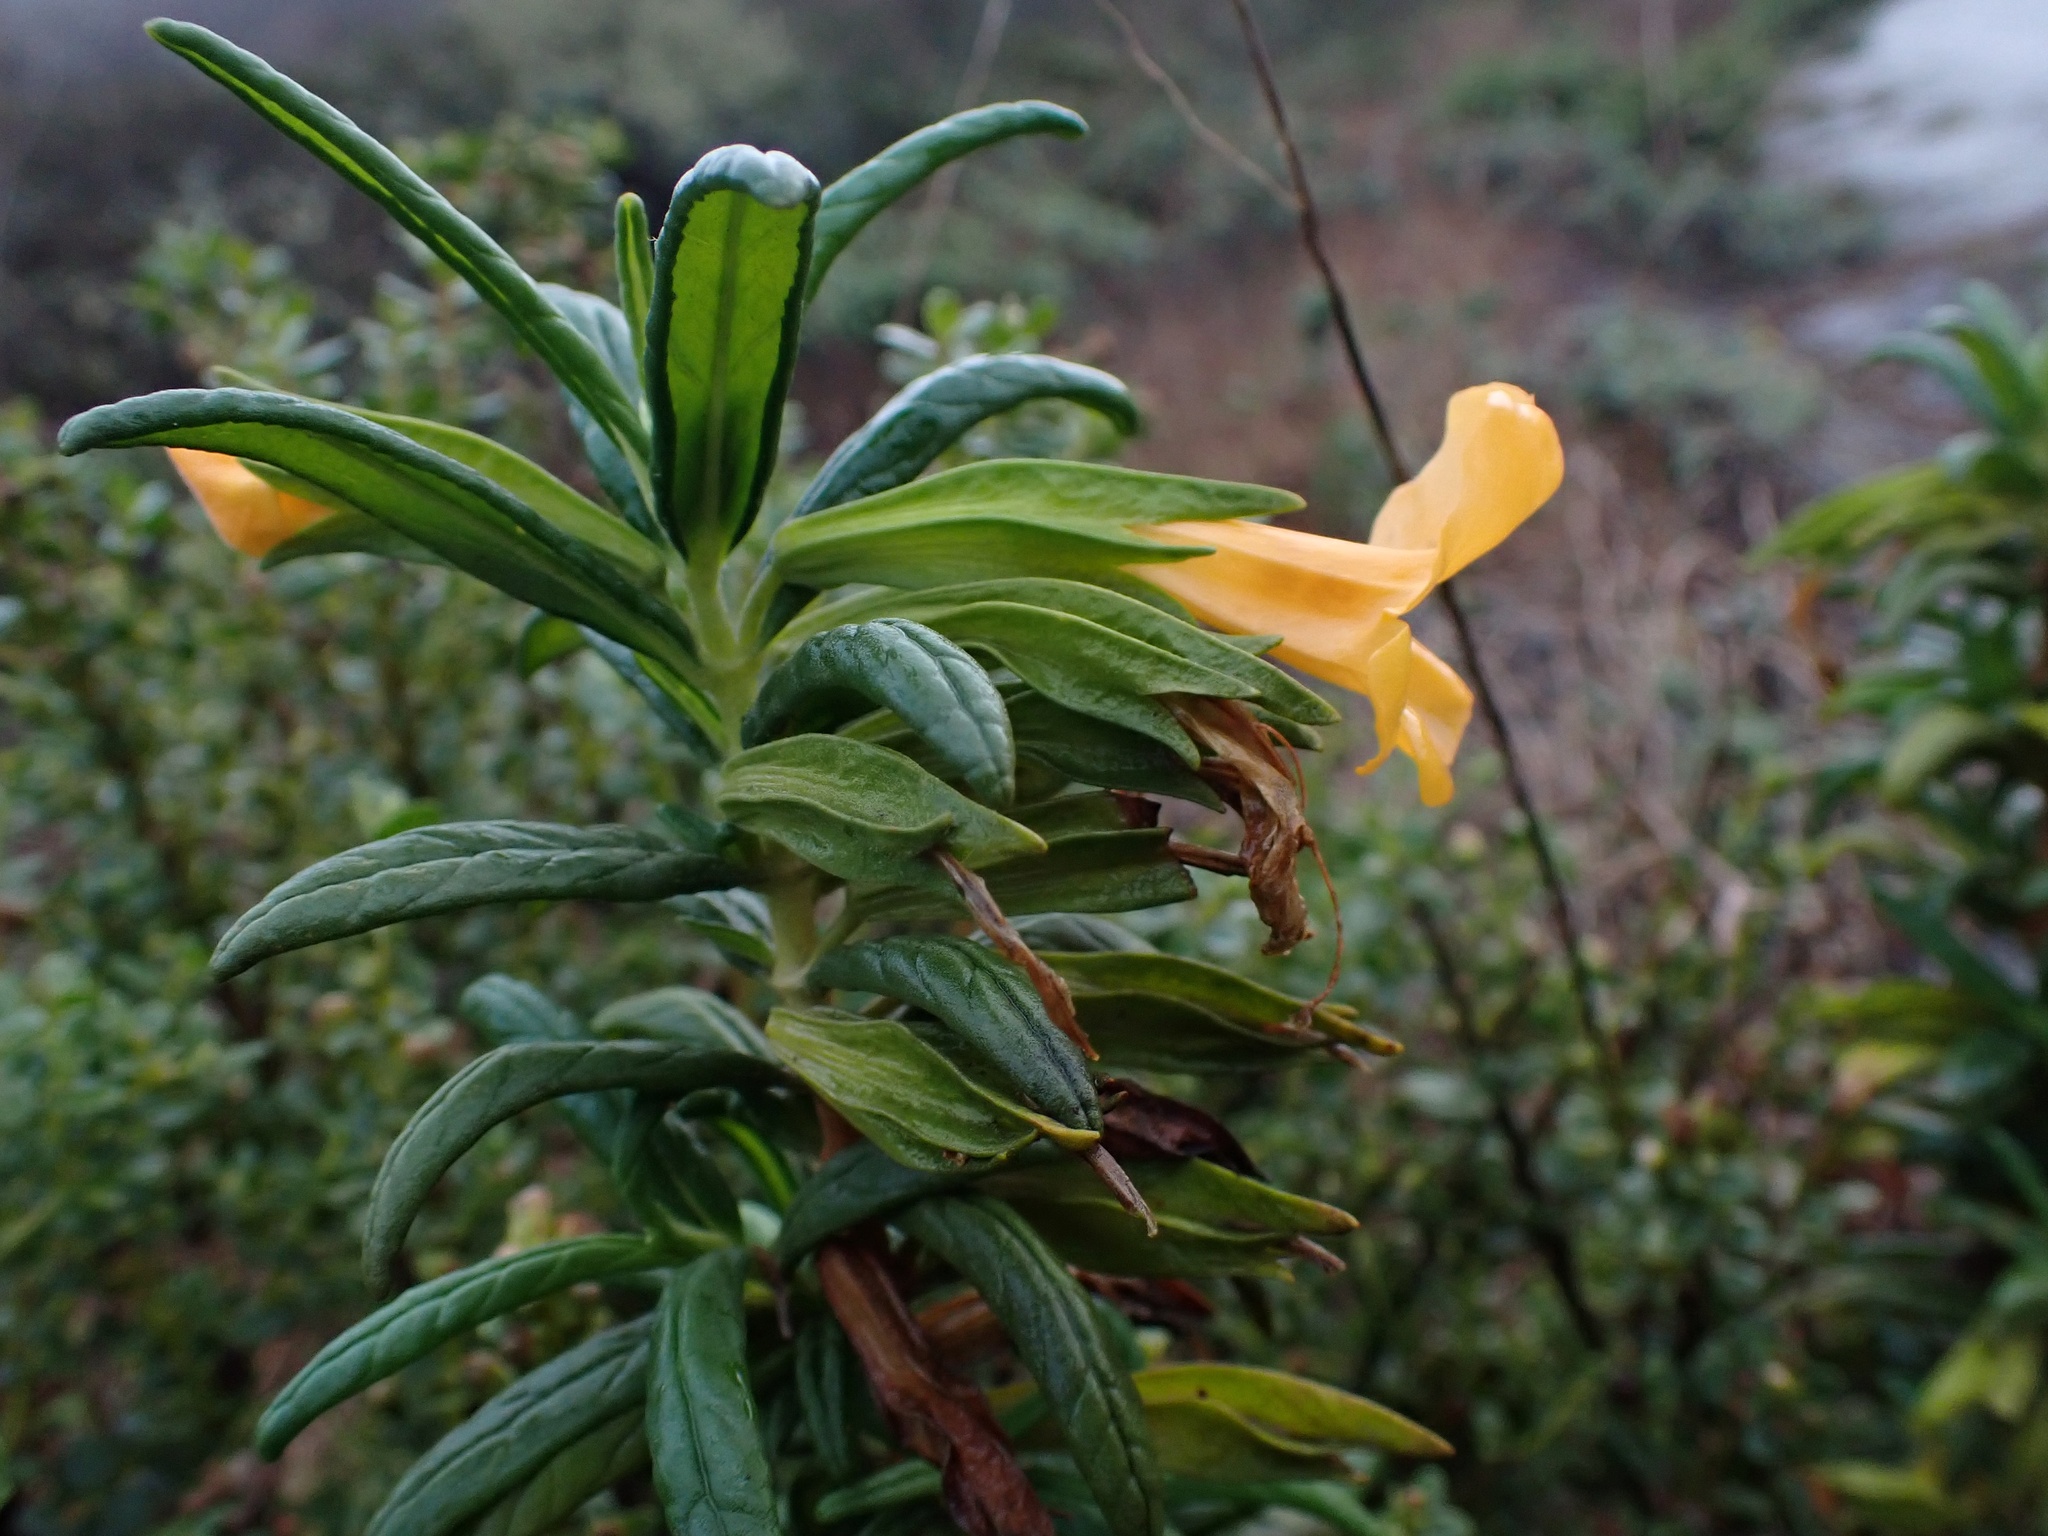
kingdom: Plantae
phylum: Tracheophyta
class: Magnoliopsida
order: Lamiales
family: Phrymaceae
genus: Diplacus
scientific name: Diplacus aurantiacus
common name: Bush monkey-flower
